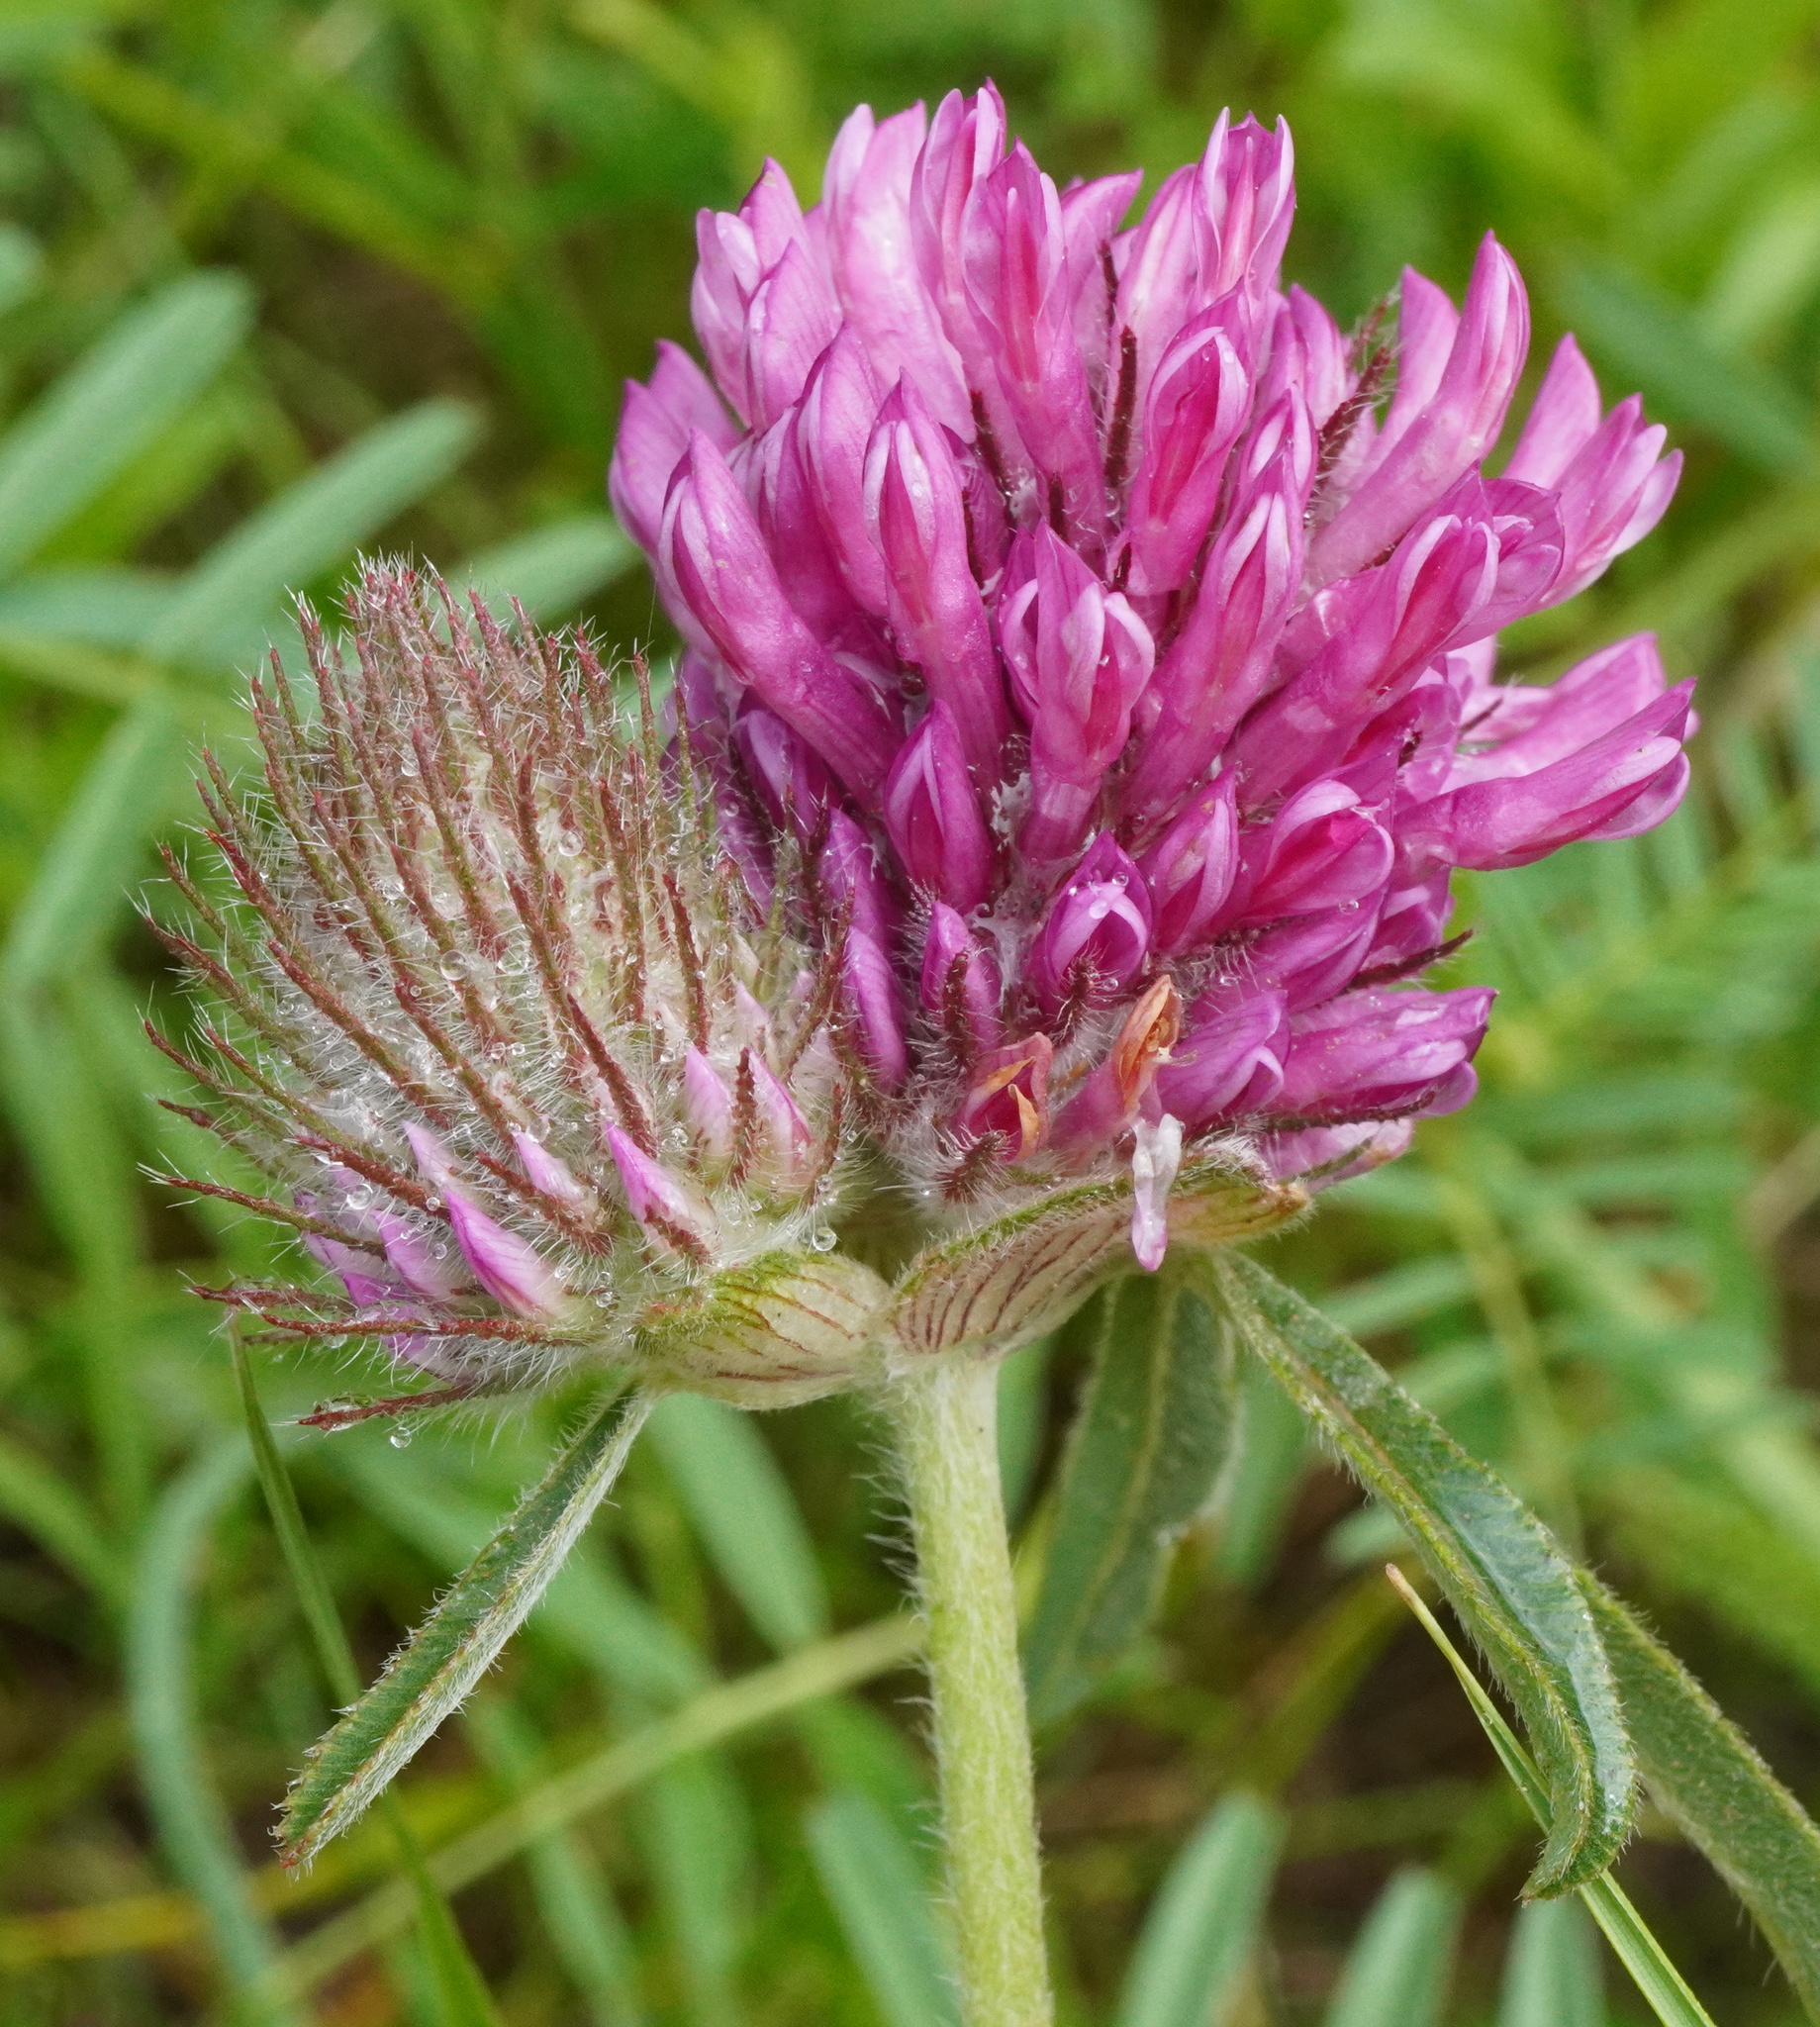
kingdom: Plantae
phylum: Tracheophyta
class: Magnoliopsida
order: Fabales
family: Fabaceae
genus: Trifolium
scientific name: Trifolium alpestre
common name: Owl-head clover
